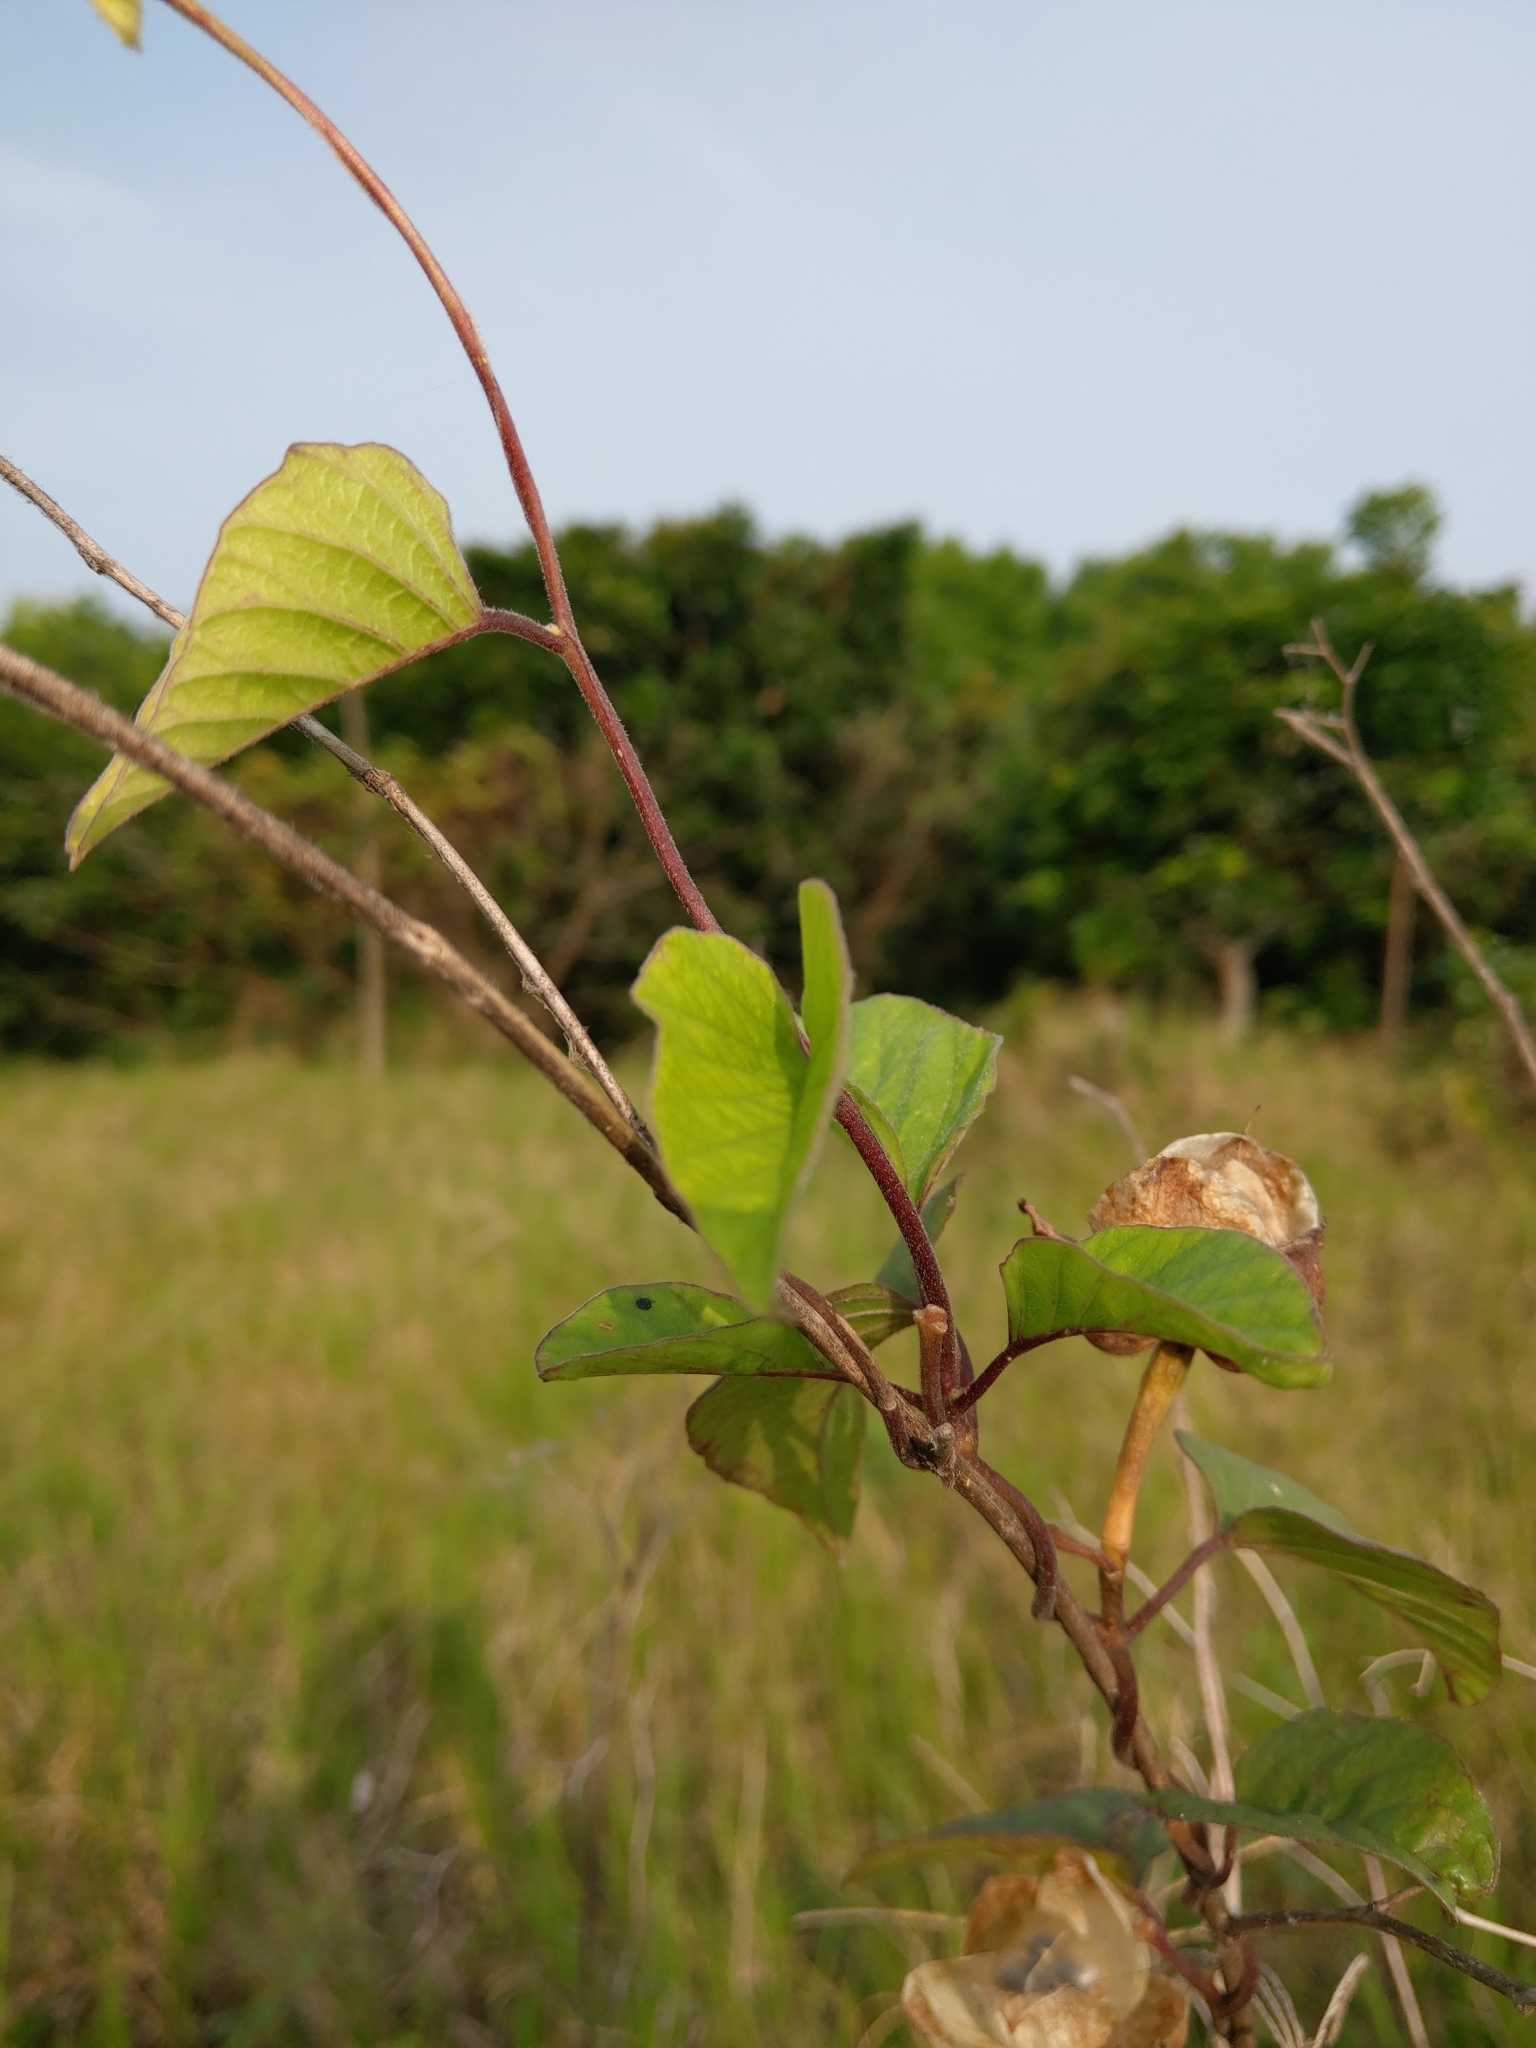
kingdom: Plantae
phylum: Tracheophyta
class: Magnoliopsida
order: Solanales
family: Convolvulaceae
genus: Operculina
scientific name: Operculina turpethum
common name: Transparent wood-rose
